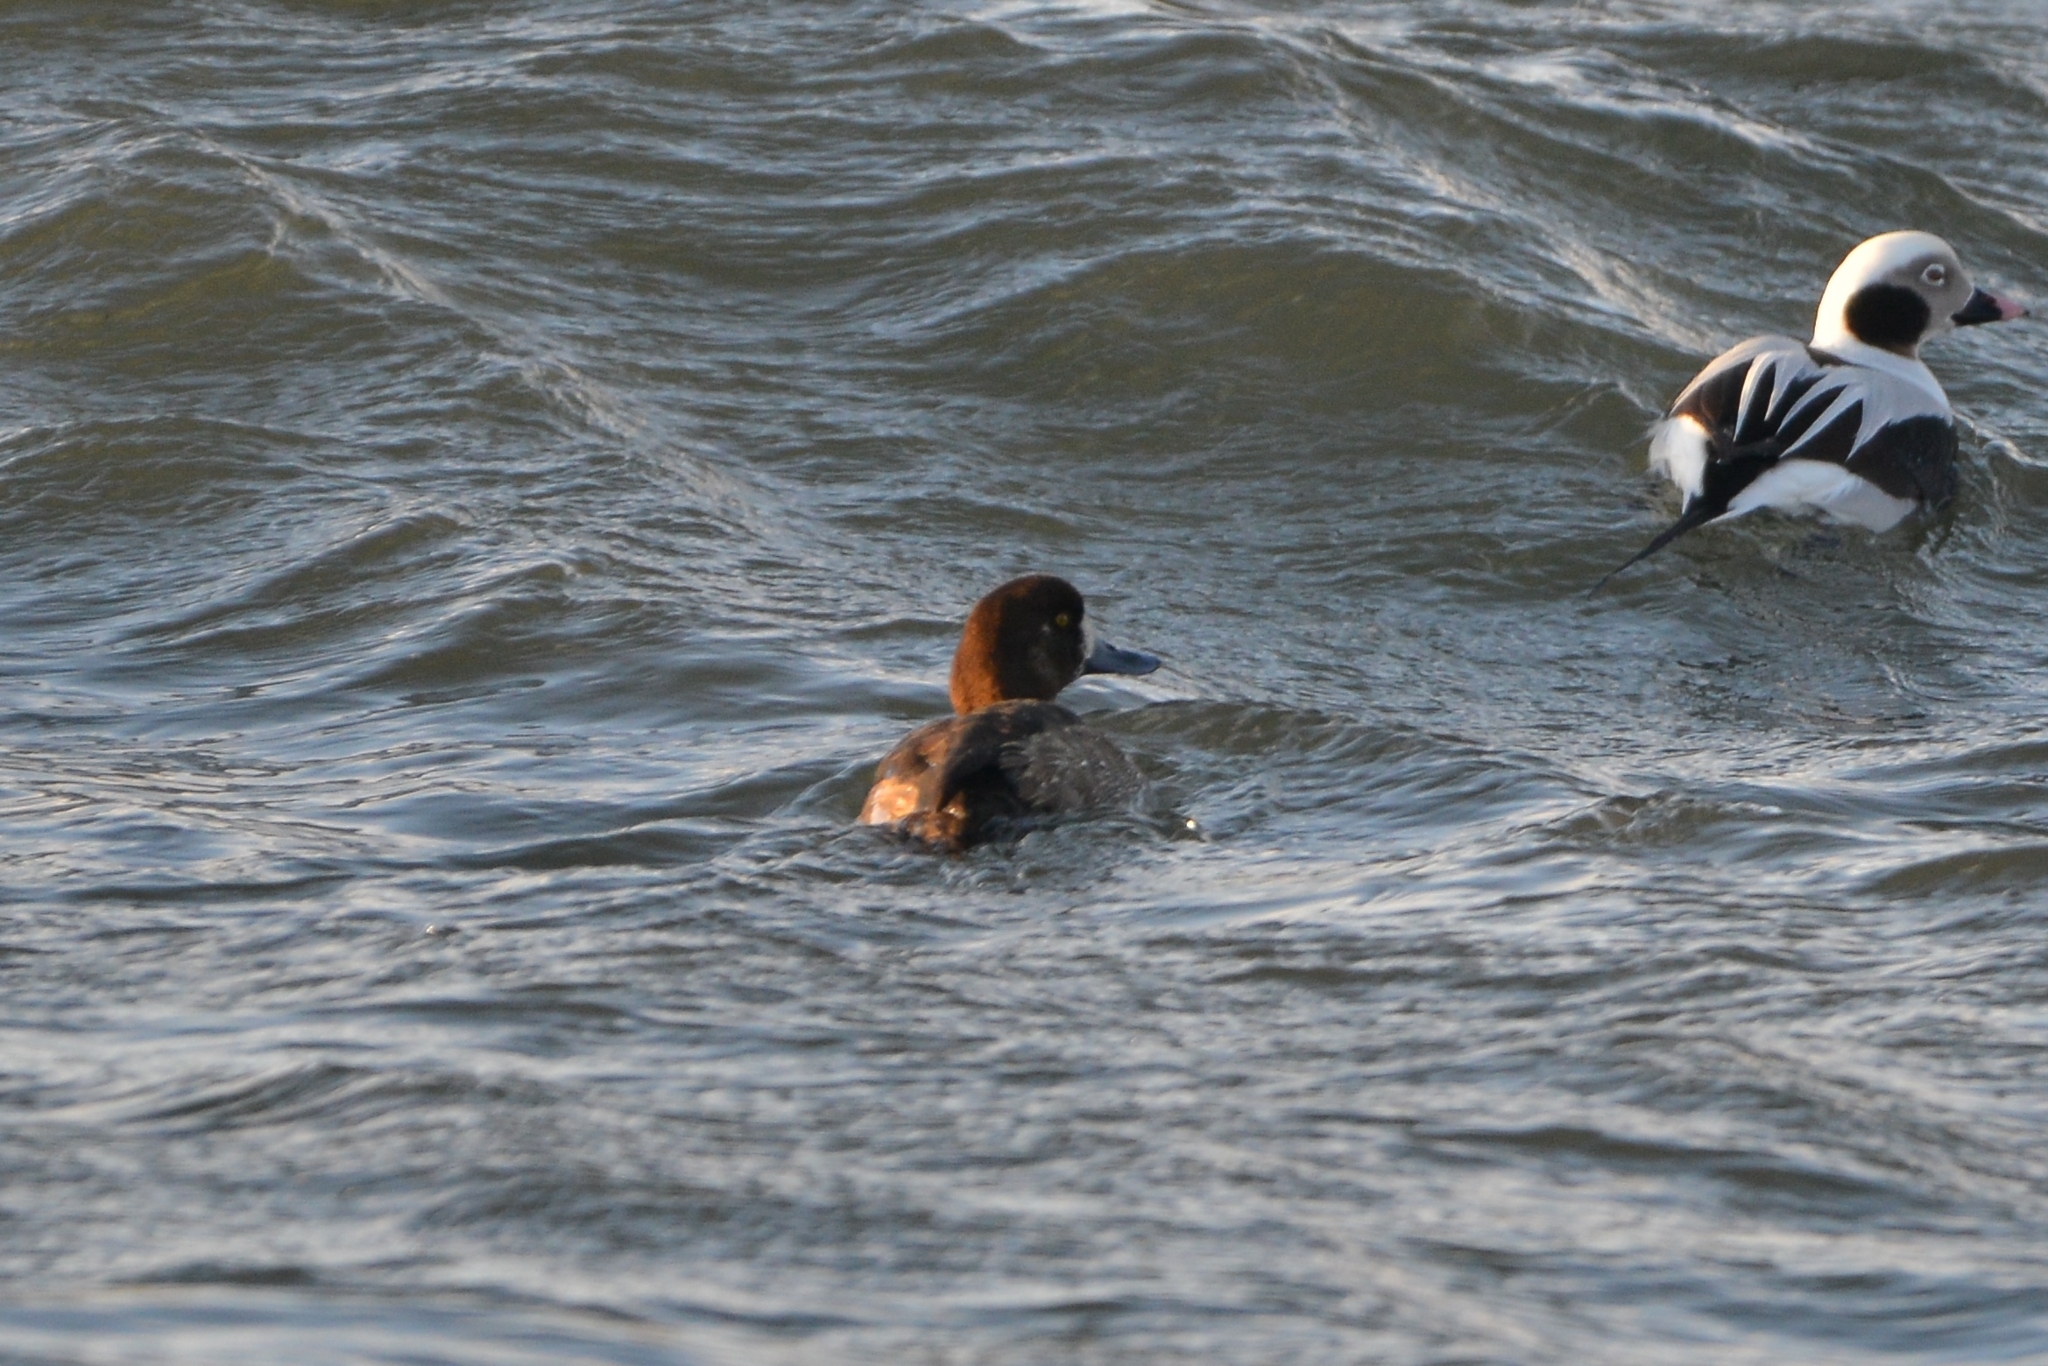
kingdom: Animalia
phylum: Chordata
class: Aves
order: Anseriformes
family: Anatidae
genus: Aythya
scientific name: Aythya marila
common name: Greater scaup
